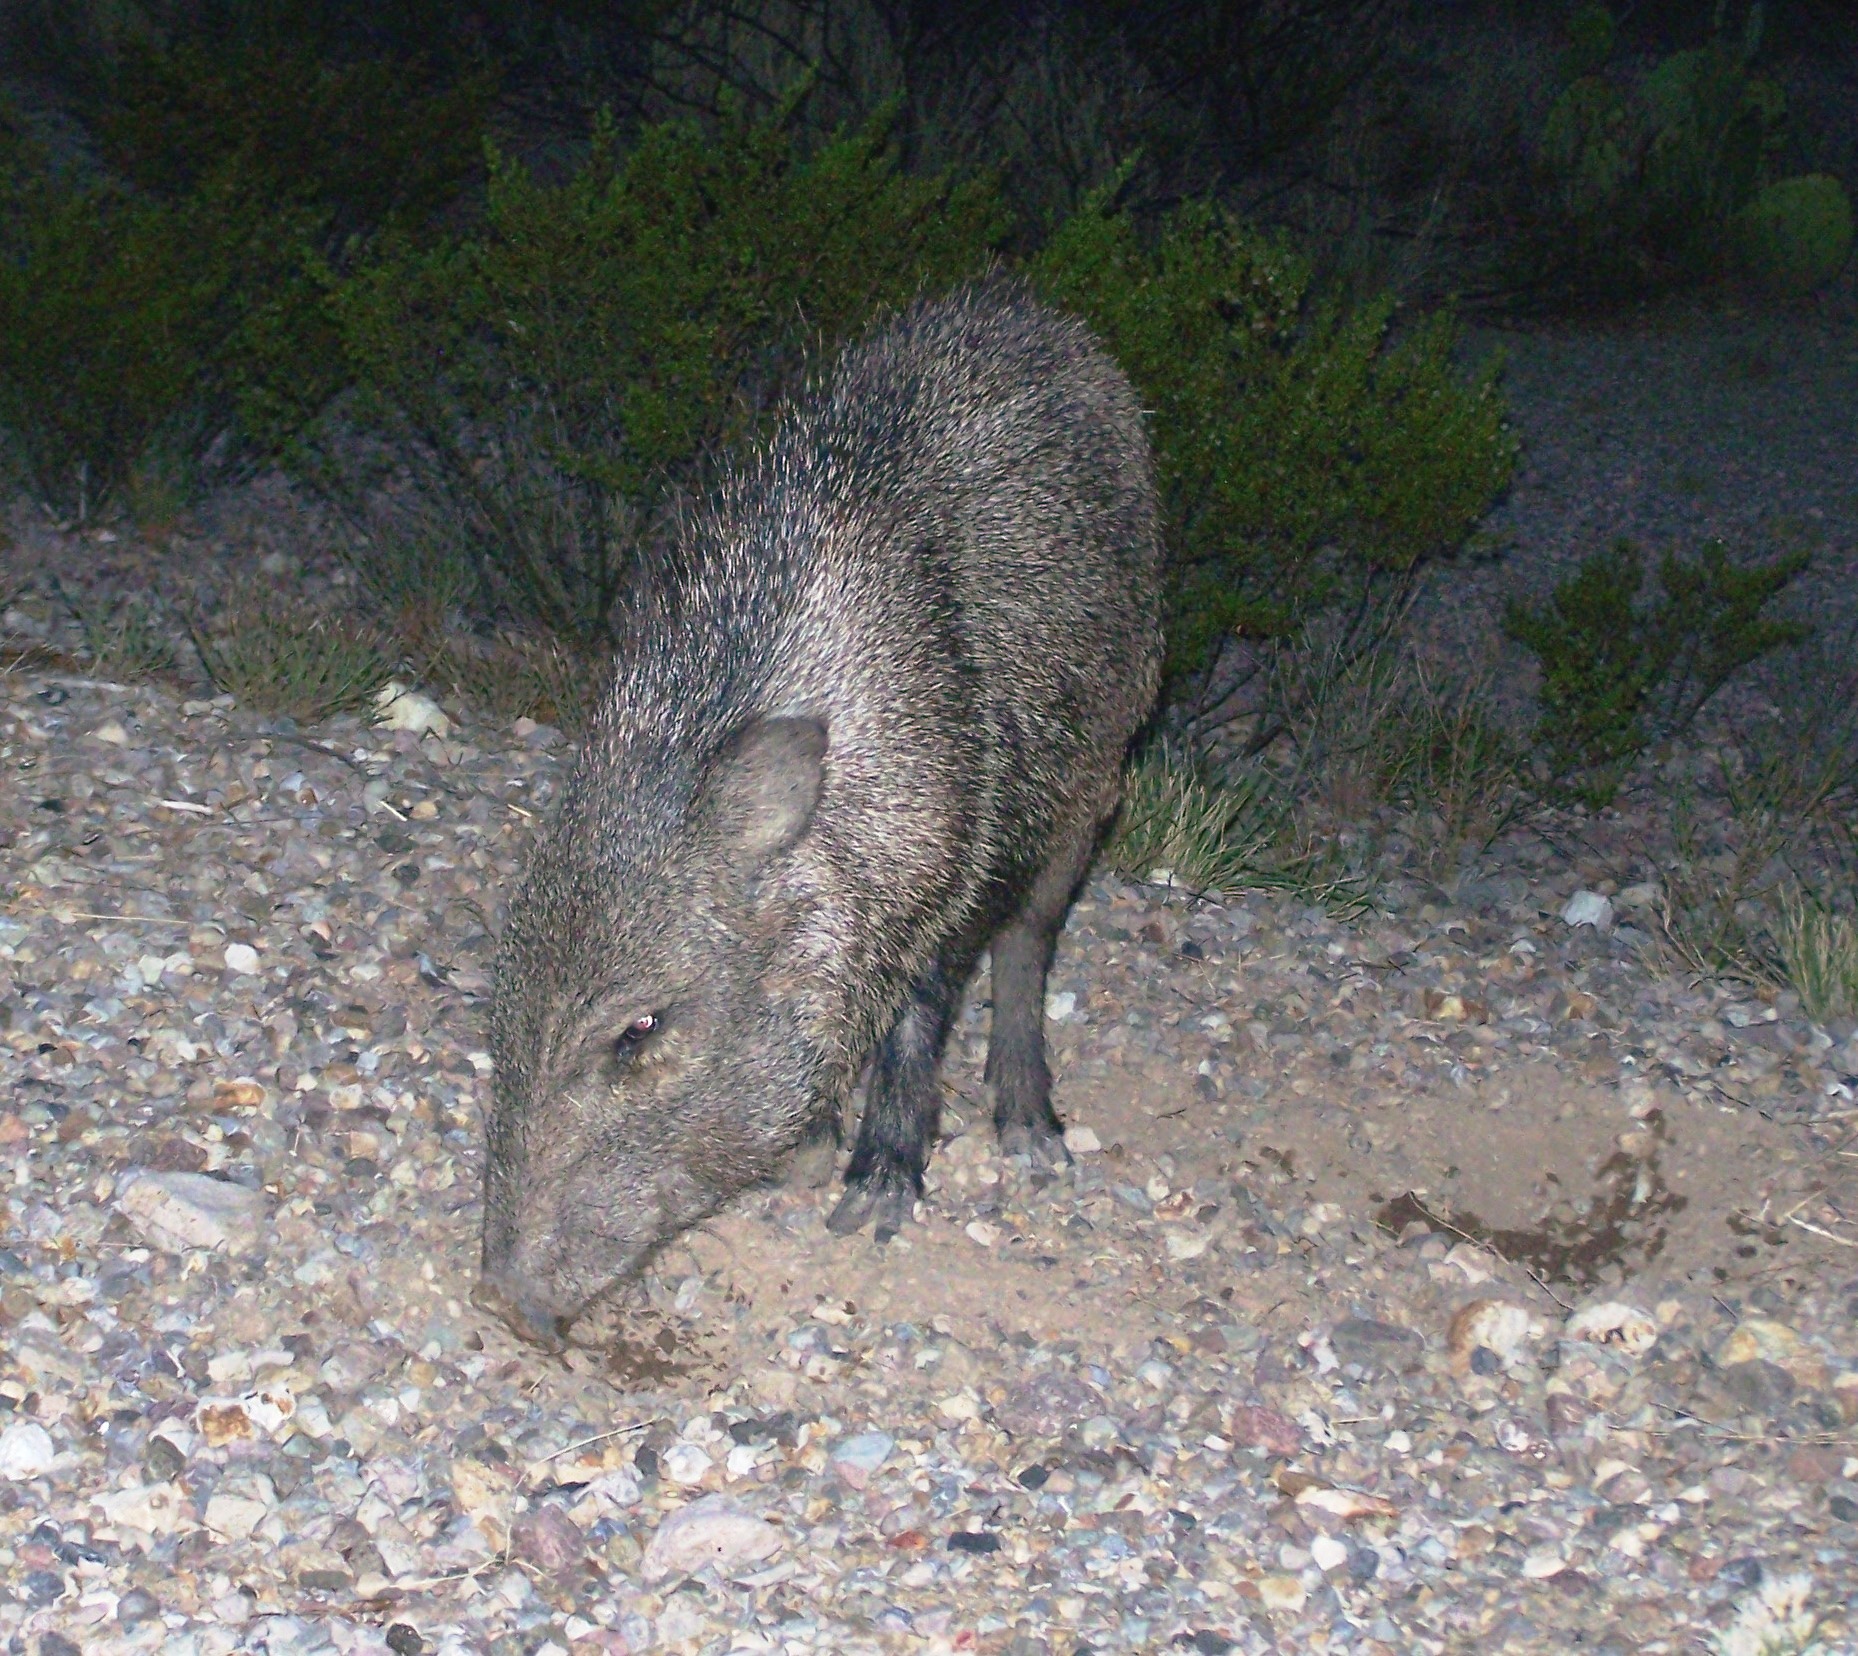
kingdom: Animalia
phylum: Chordata
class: Mammalia
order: Artiodactyla
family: Tayassuidae
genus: Pecari
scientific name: Pecari tajacu
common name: Collared peccary
